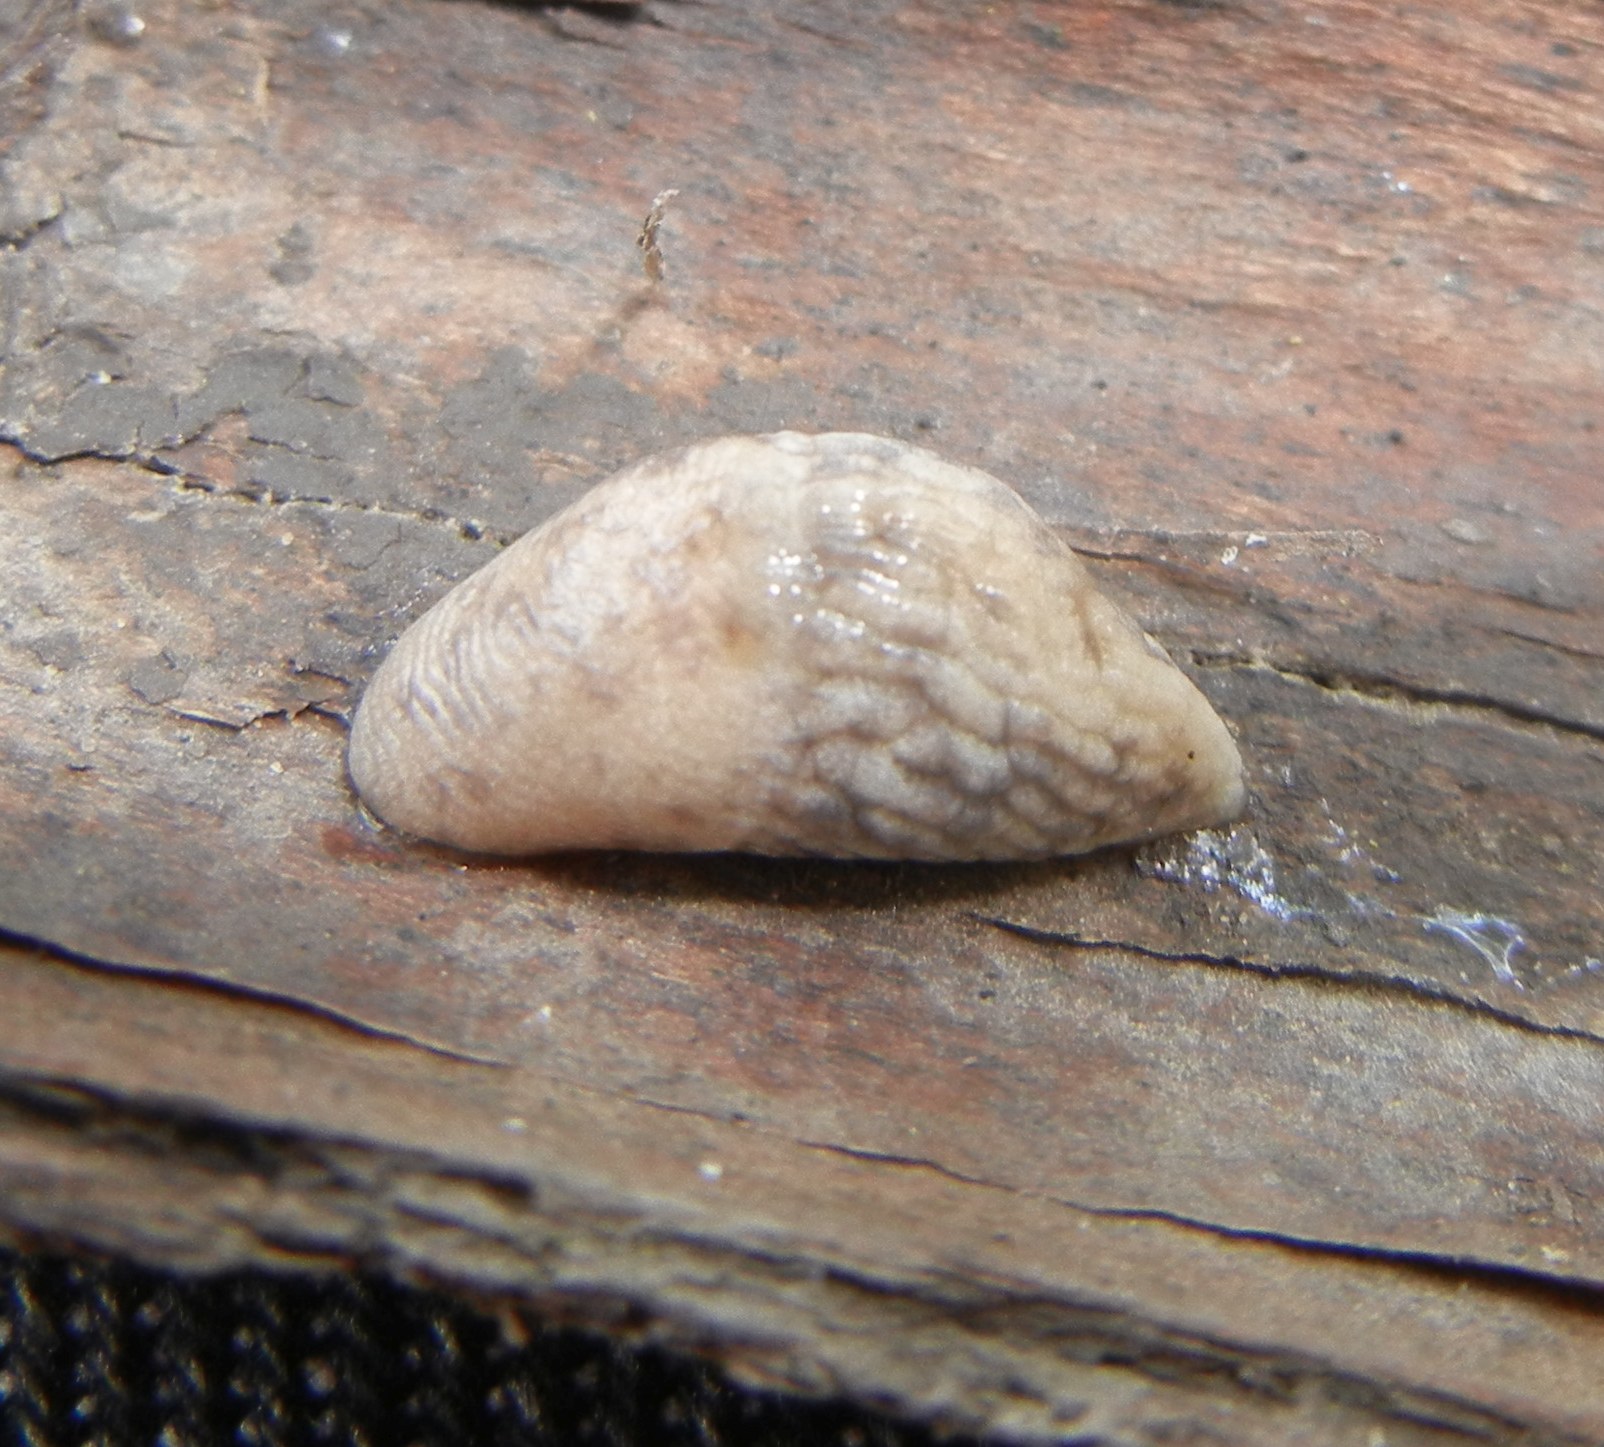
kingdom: Animalia
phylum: Mollusca
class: Gastropoda
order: Stylommatophora
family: Agriolimacidae
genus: Deroceras
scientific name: Deroceras reticulatum
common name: Gray field slug
